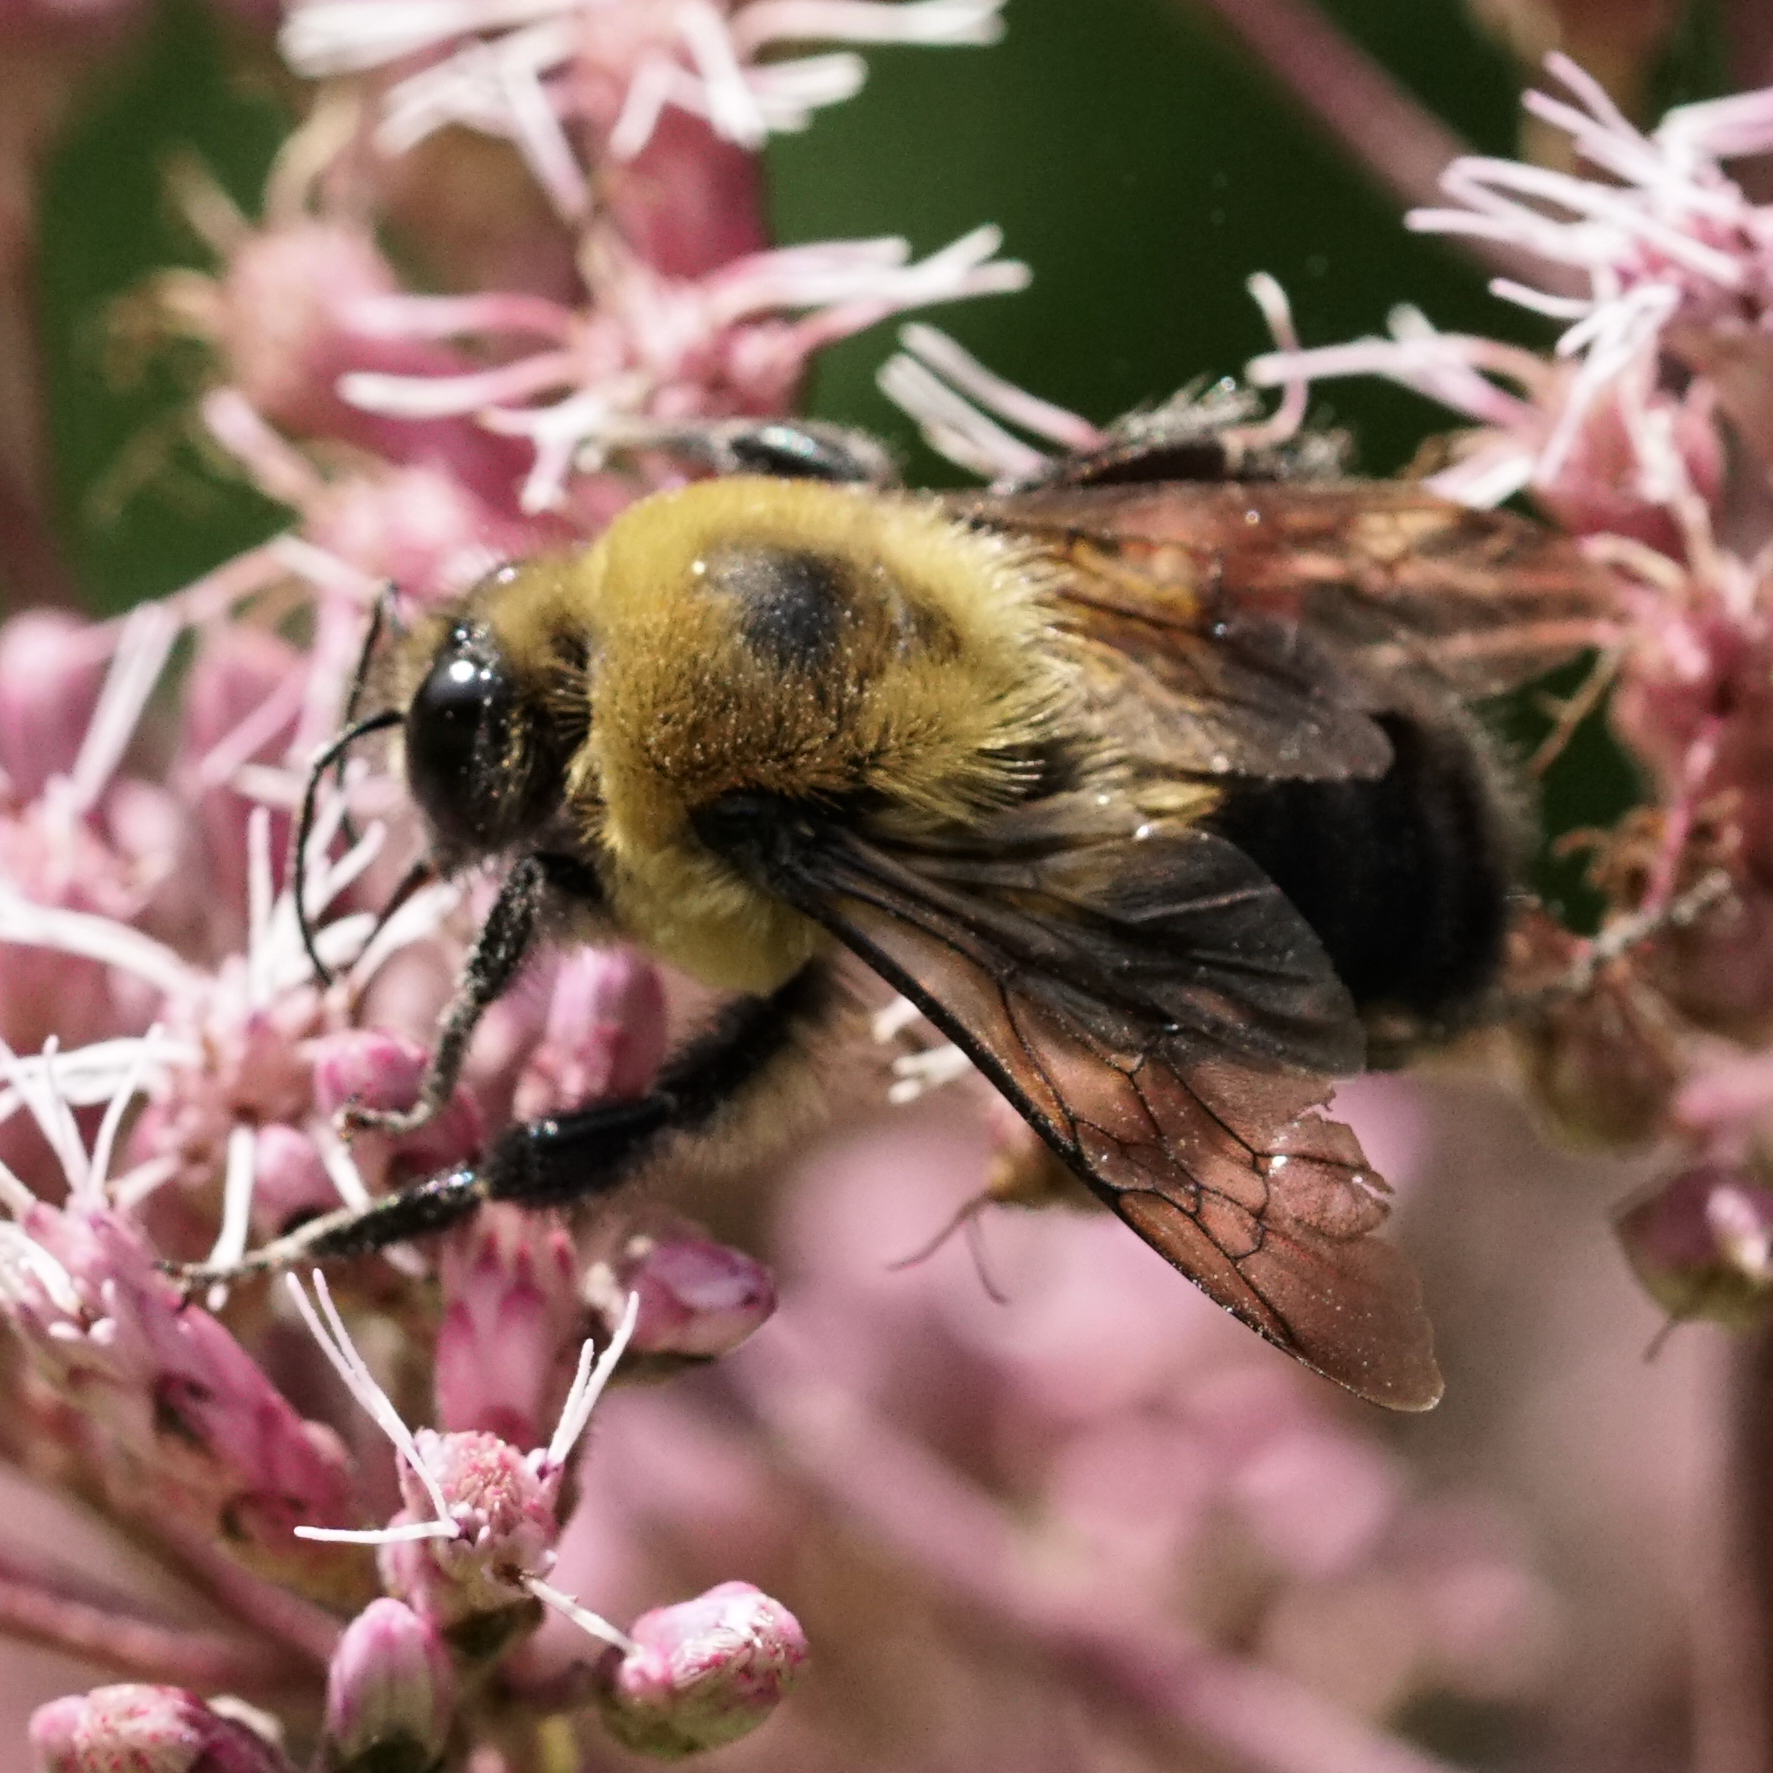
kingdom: Animalia
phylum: Arthropoda
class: Insecta
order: Hymenoptera
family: Apidae
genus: Bombus
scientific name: Bombus griseocollis
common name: Brown-belted bumble bee
